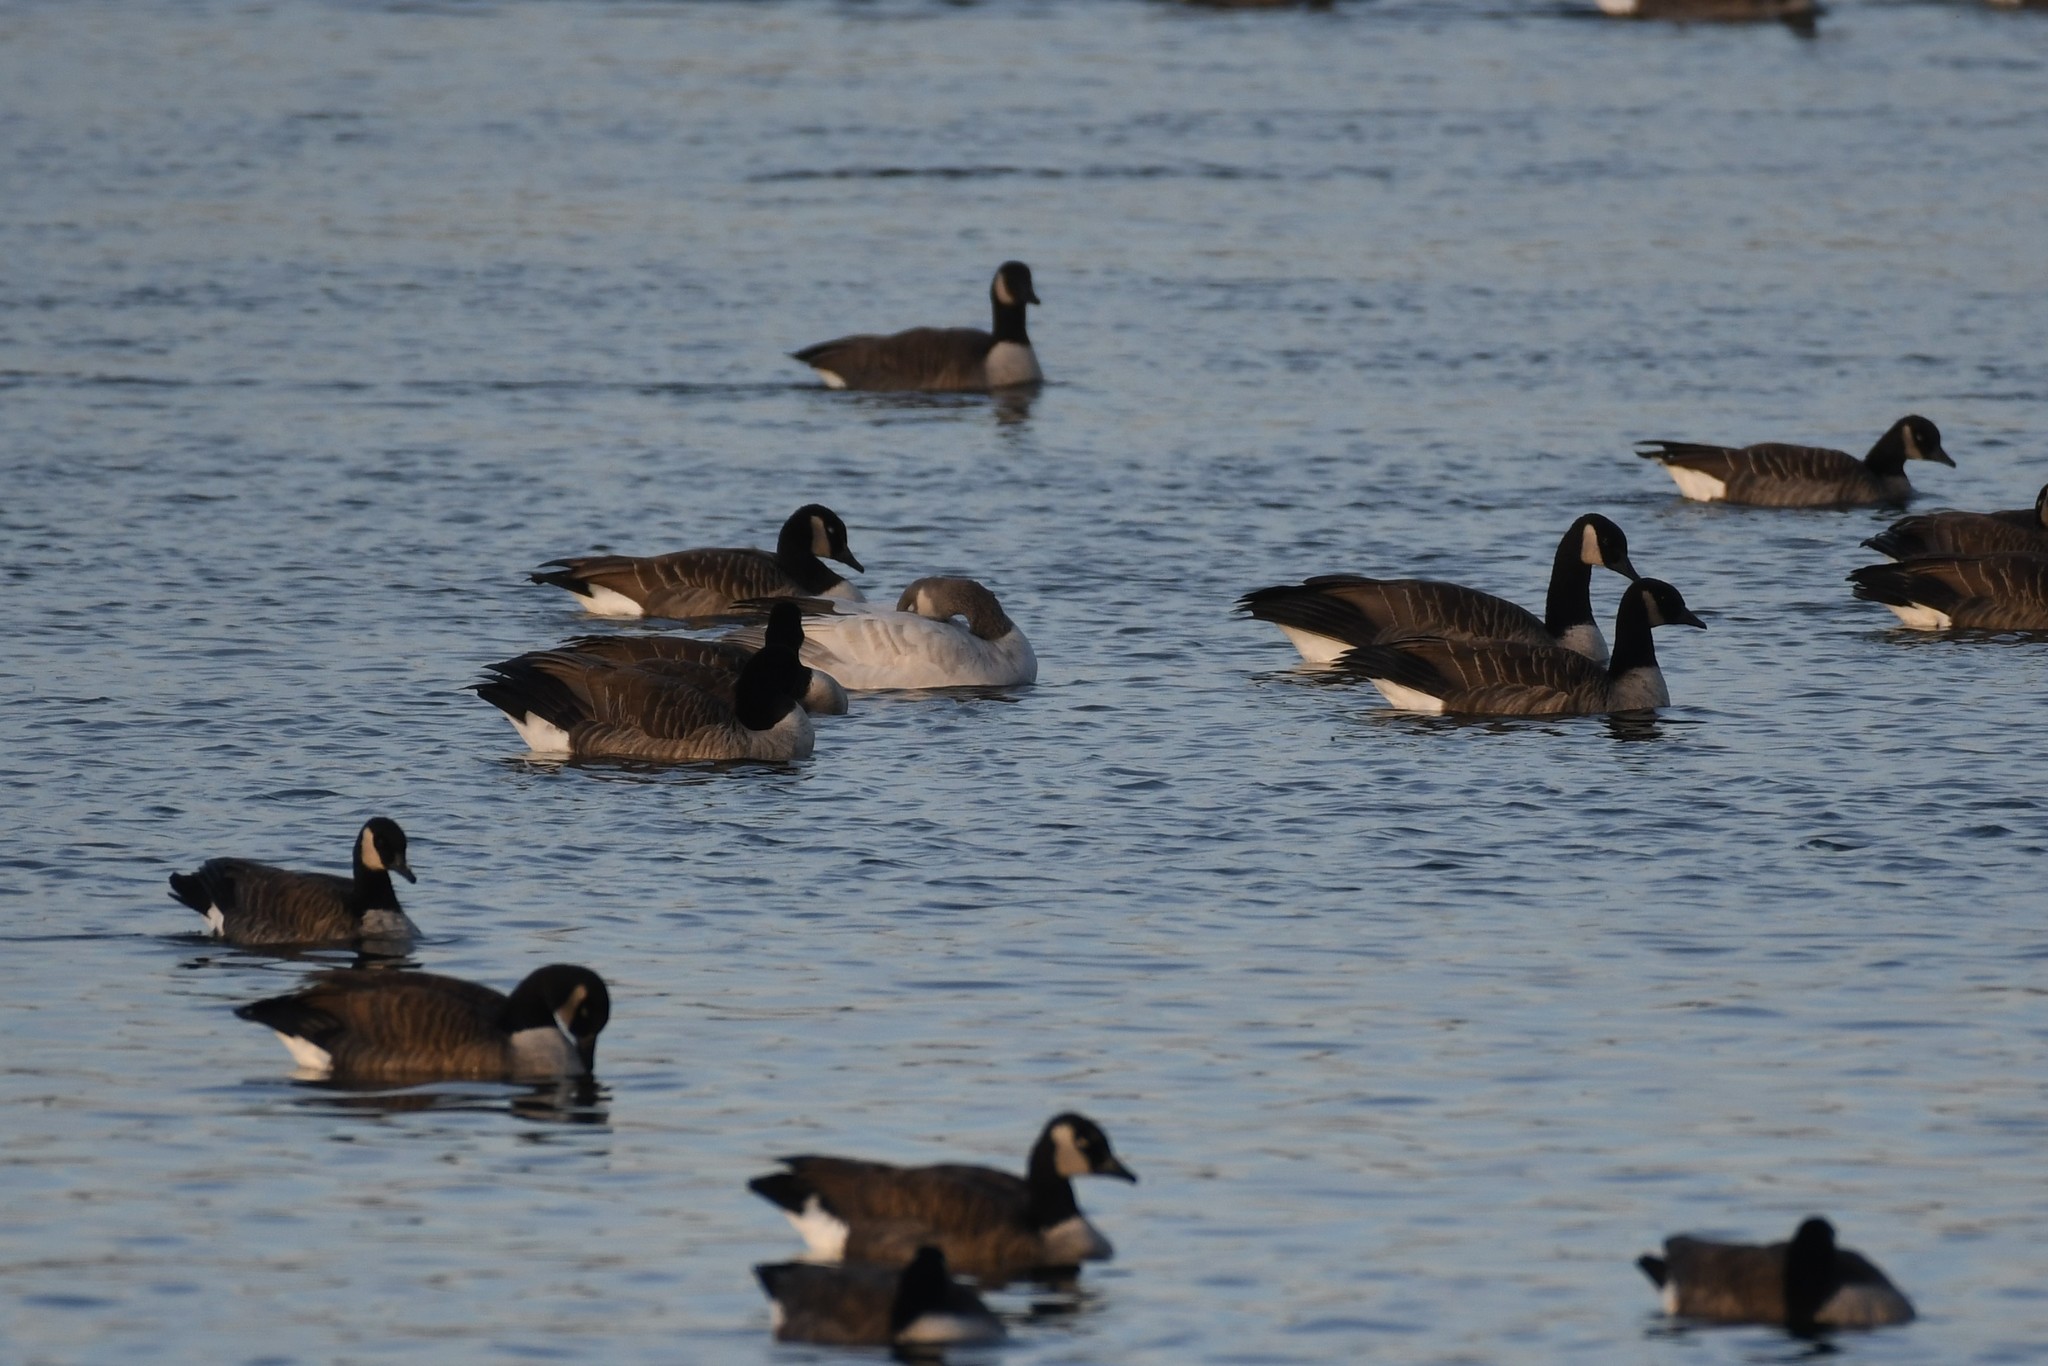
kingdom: Animalia
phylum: Chordata
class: Aves
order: Anseriformes
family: Anatidae
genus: Branta
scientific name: Branta canadensis
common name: Canada goose
